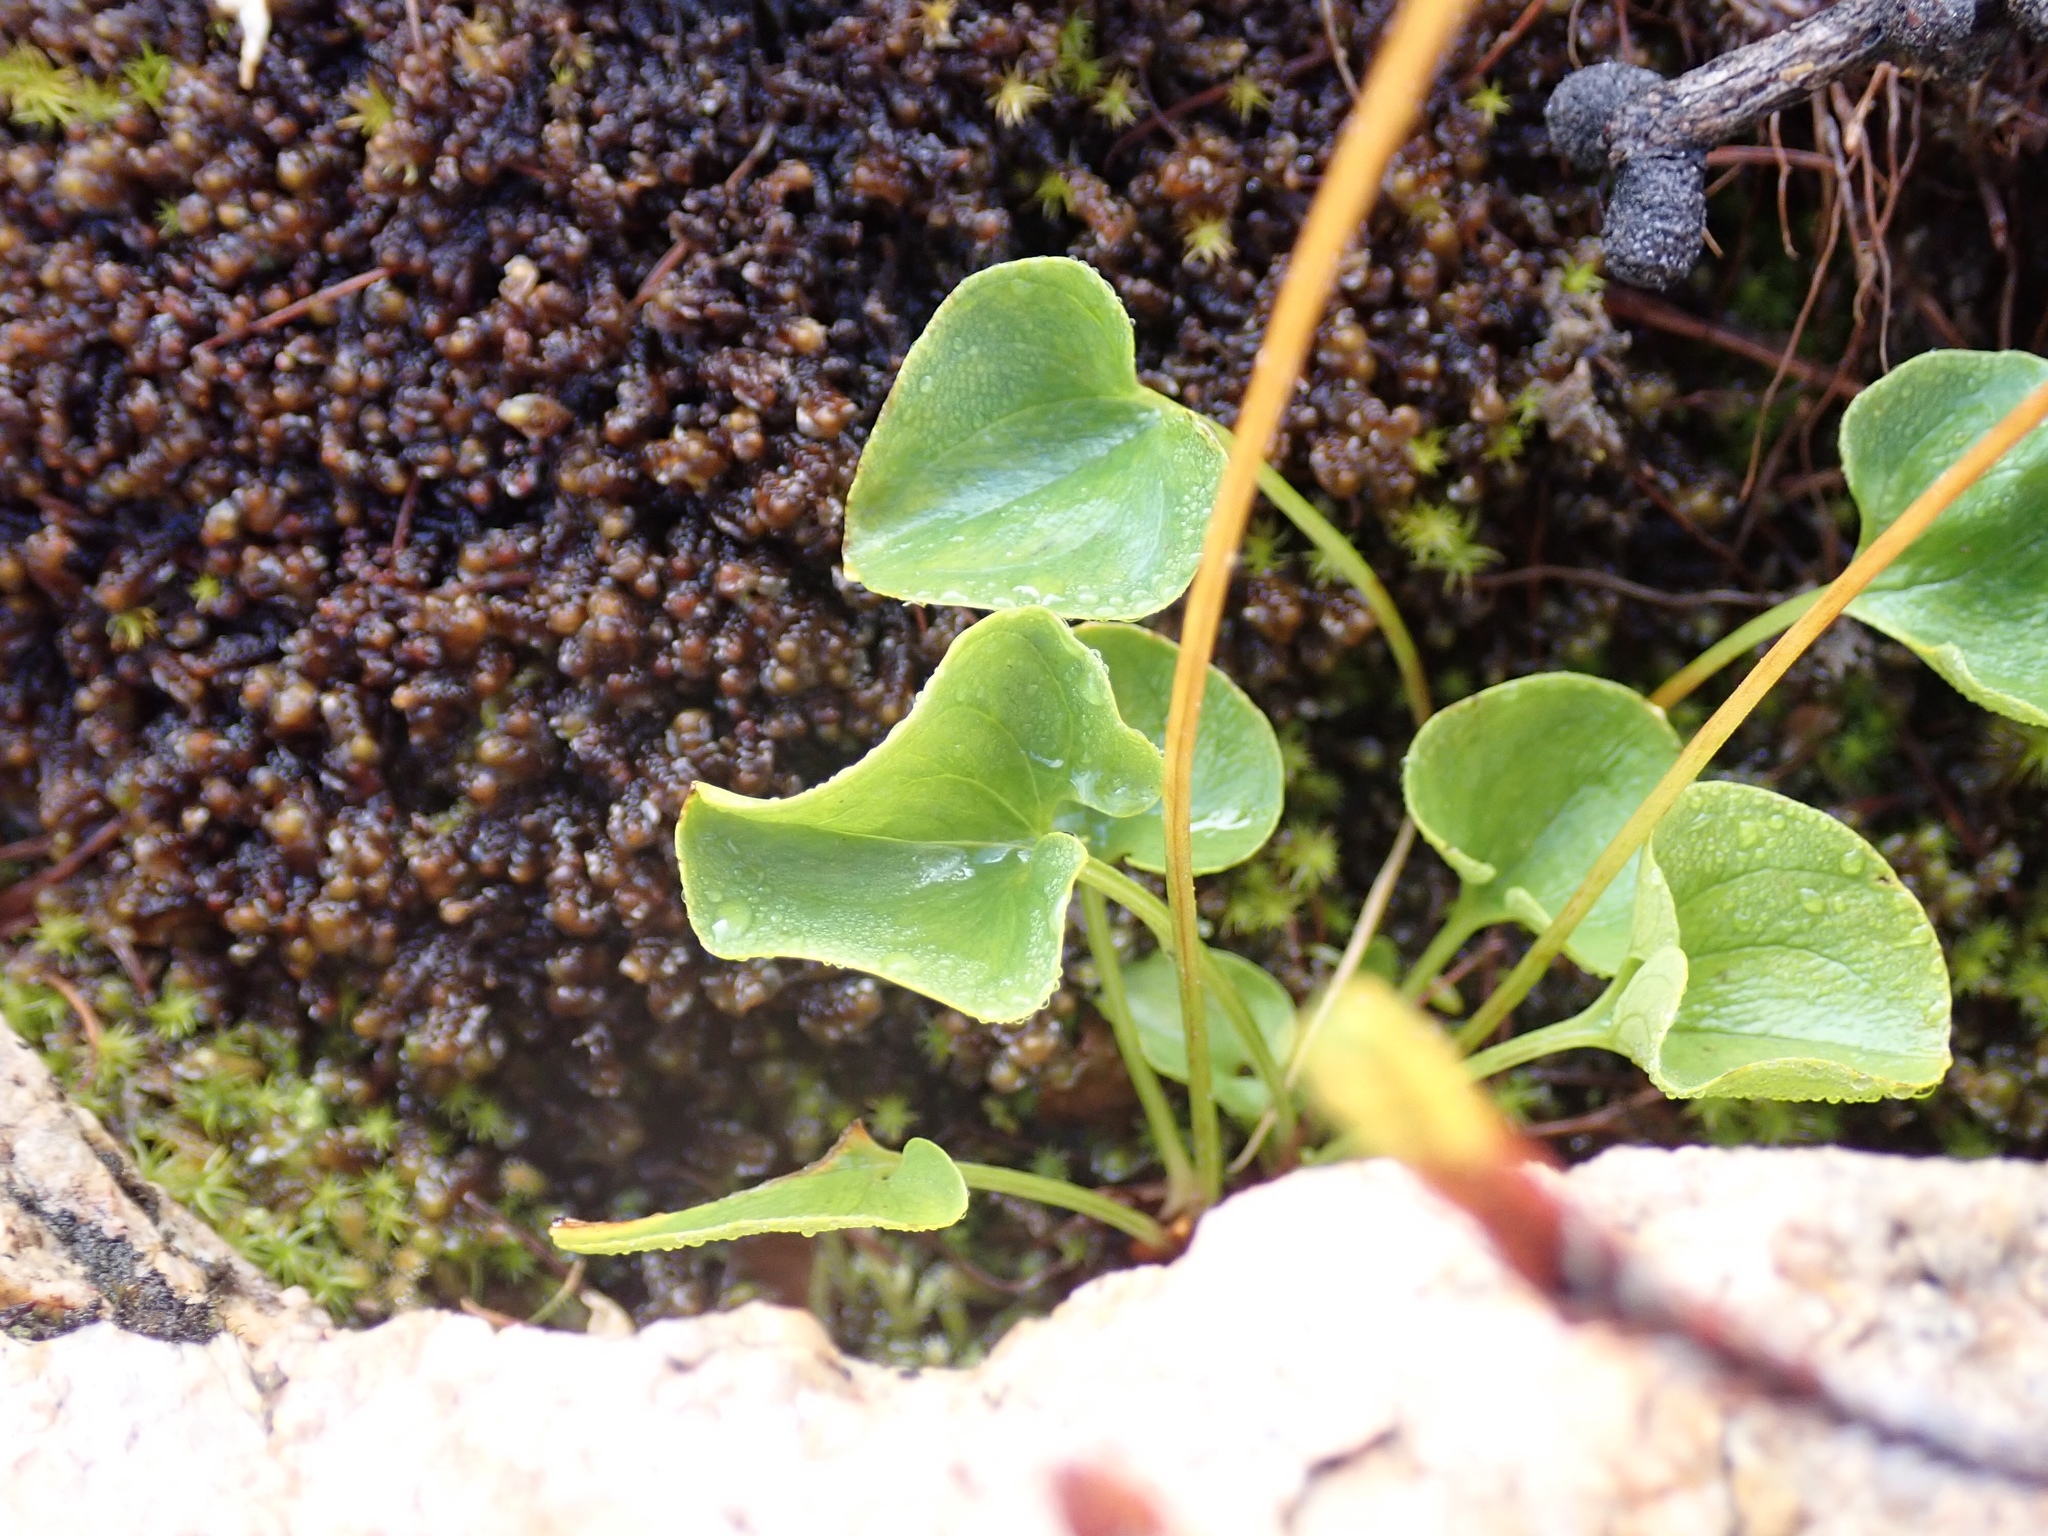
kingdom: Plantae
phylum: Tracheophyta
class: Magnoliopsida
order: Celastrales
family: Parnassiaceae
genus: Parnassia
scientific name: Parnassia fimbriata
